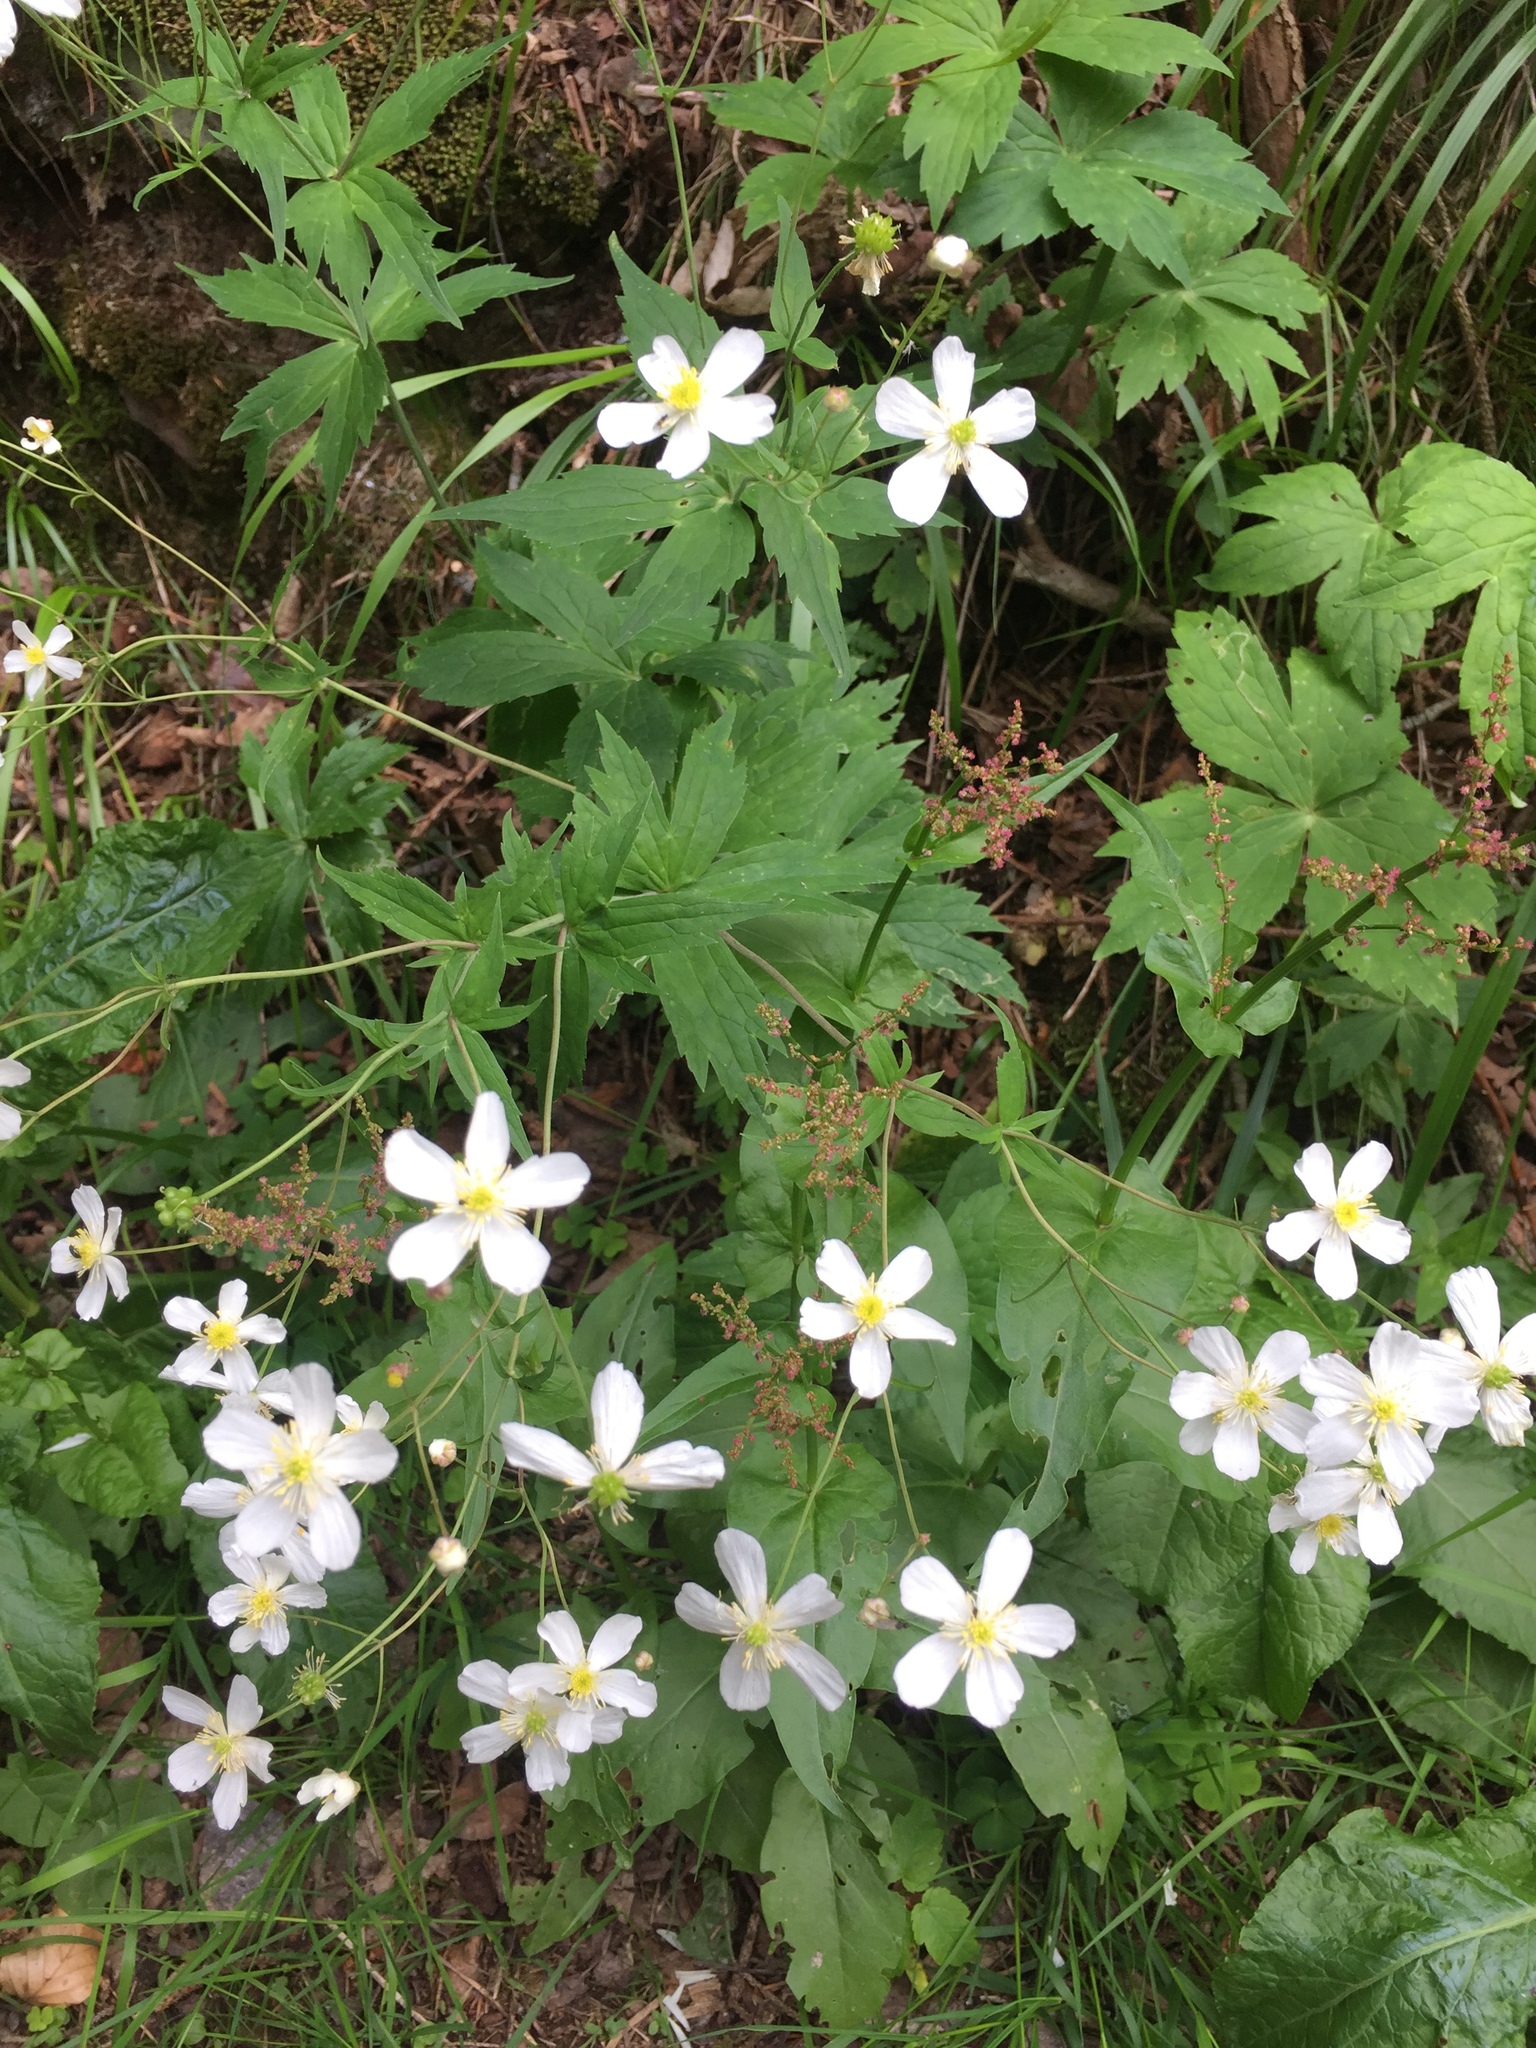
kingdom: Plantae
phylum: Tracheophyta
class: Magnoliopsida
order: Ranunculales
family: Ranunculaceae
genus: Ranunculus
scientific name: Ranunculus aconitifolius
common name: Aconite-leaved buttercup
